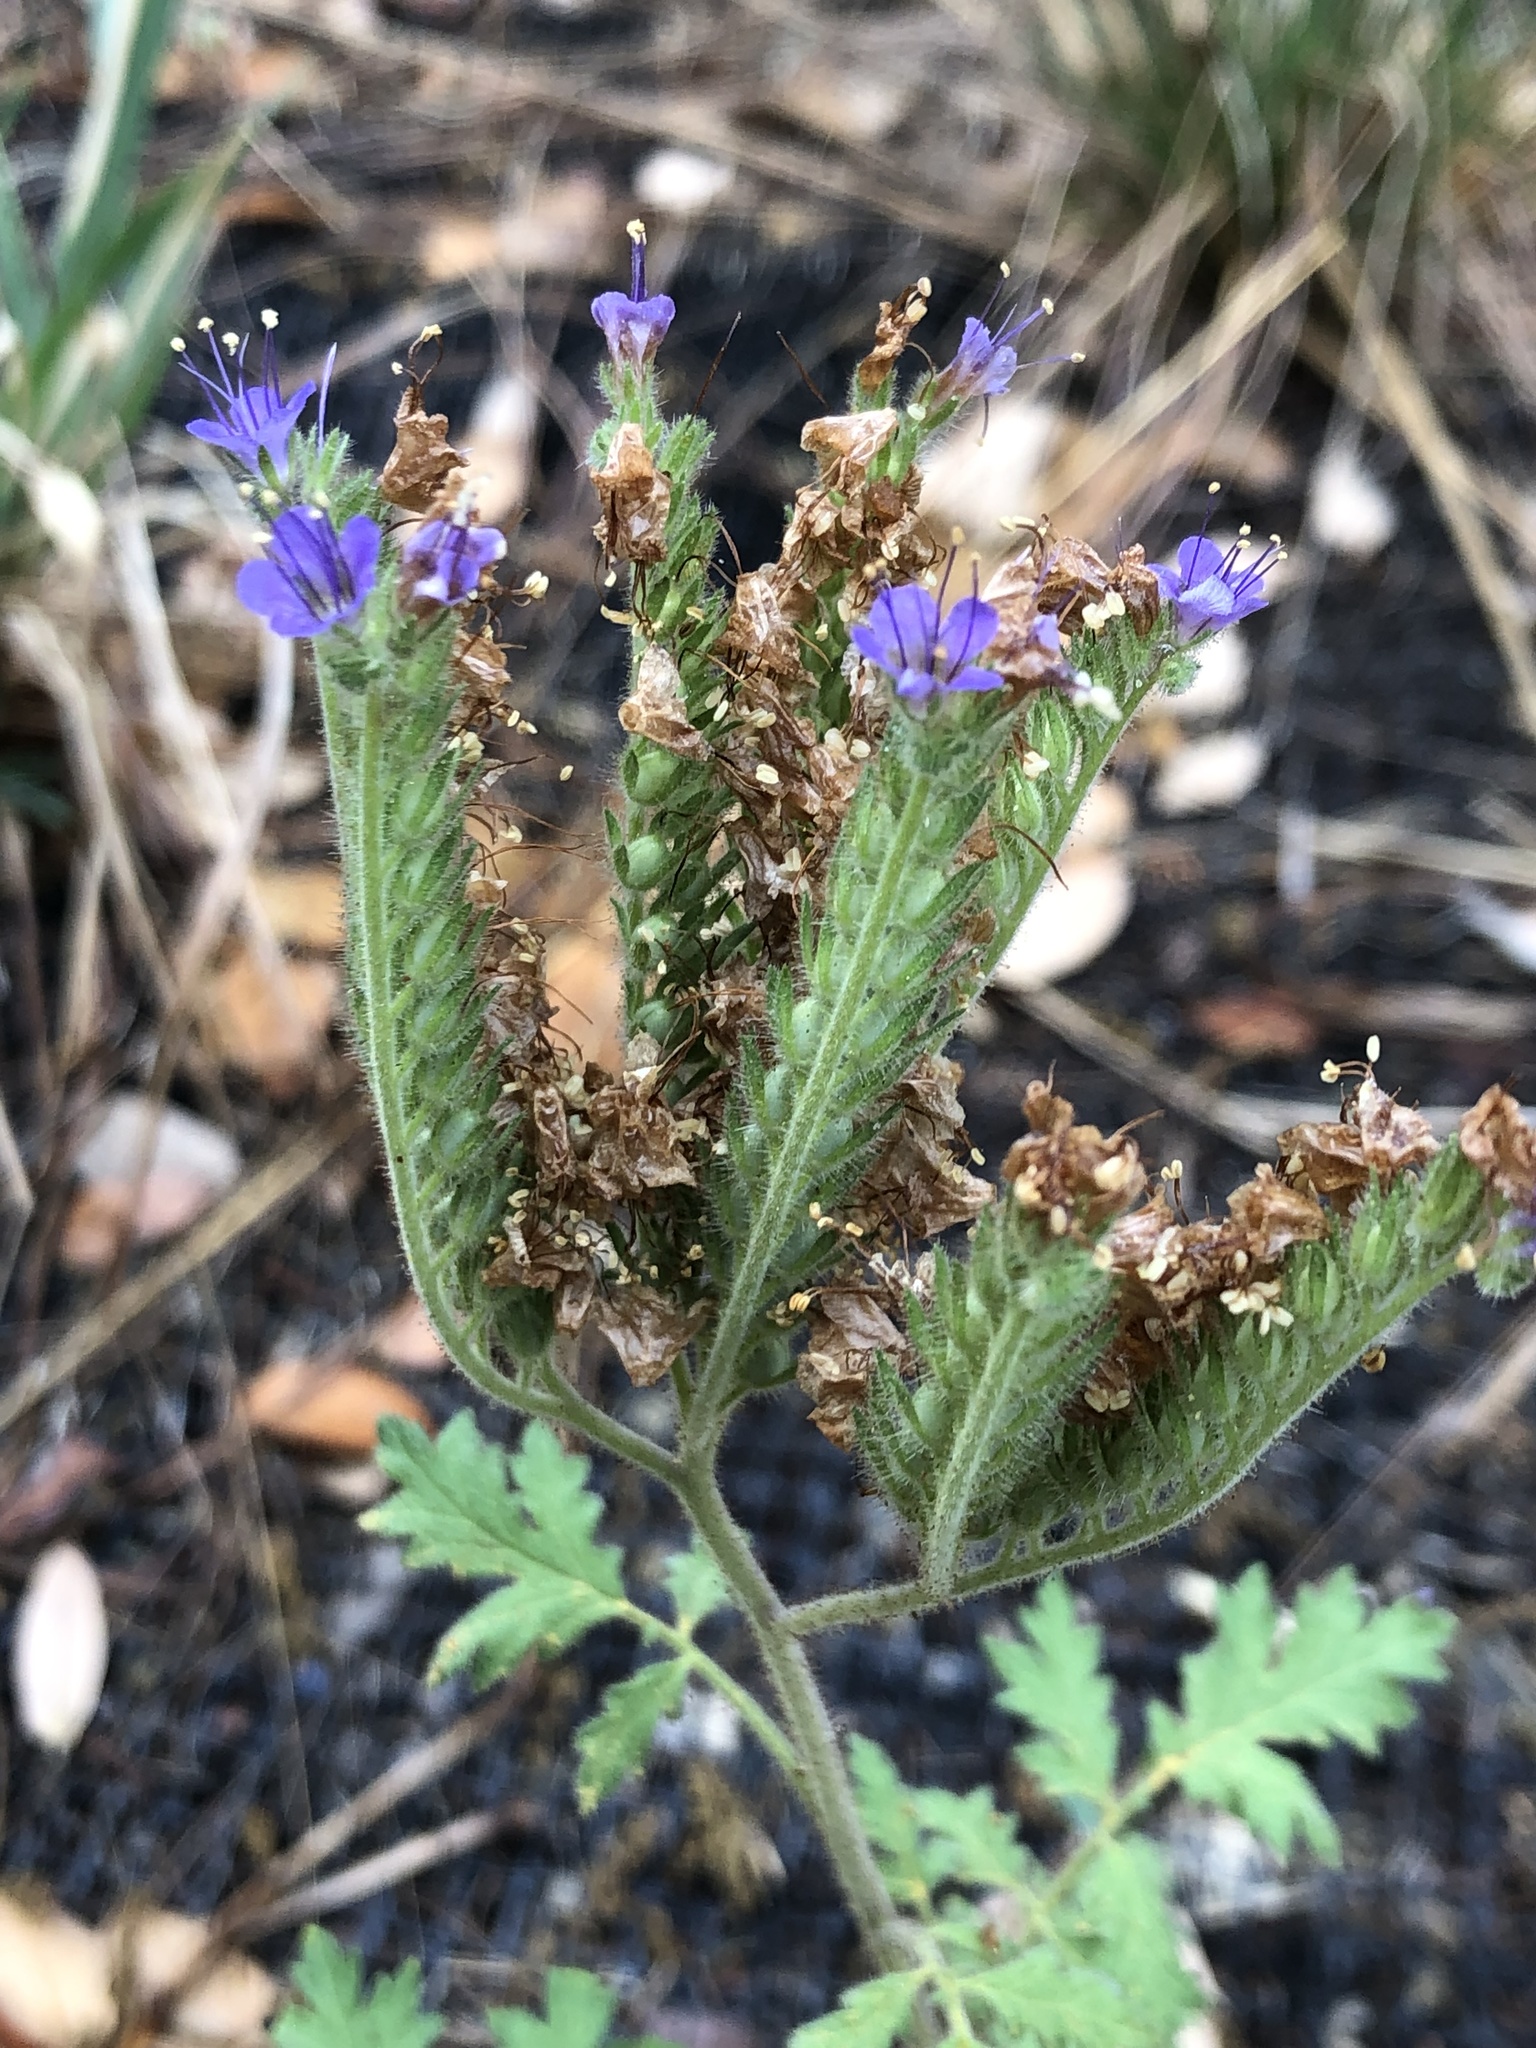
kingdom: Plantae
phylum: Tracheophyta
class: Magnoliopsida
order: Boraginales
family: Hydrophyllaceae
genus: Phacelia
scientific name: Phacelia congesta
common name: Blue curls
